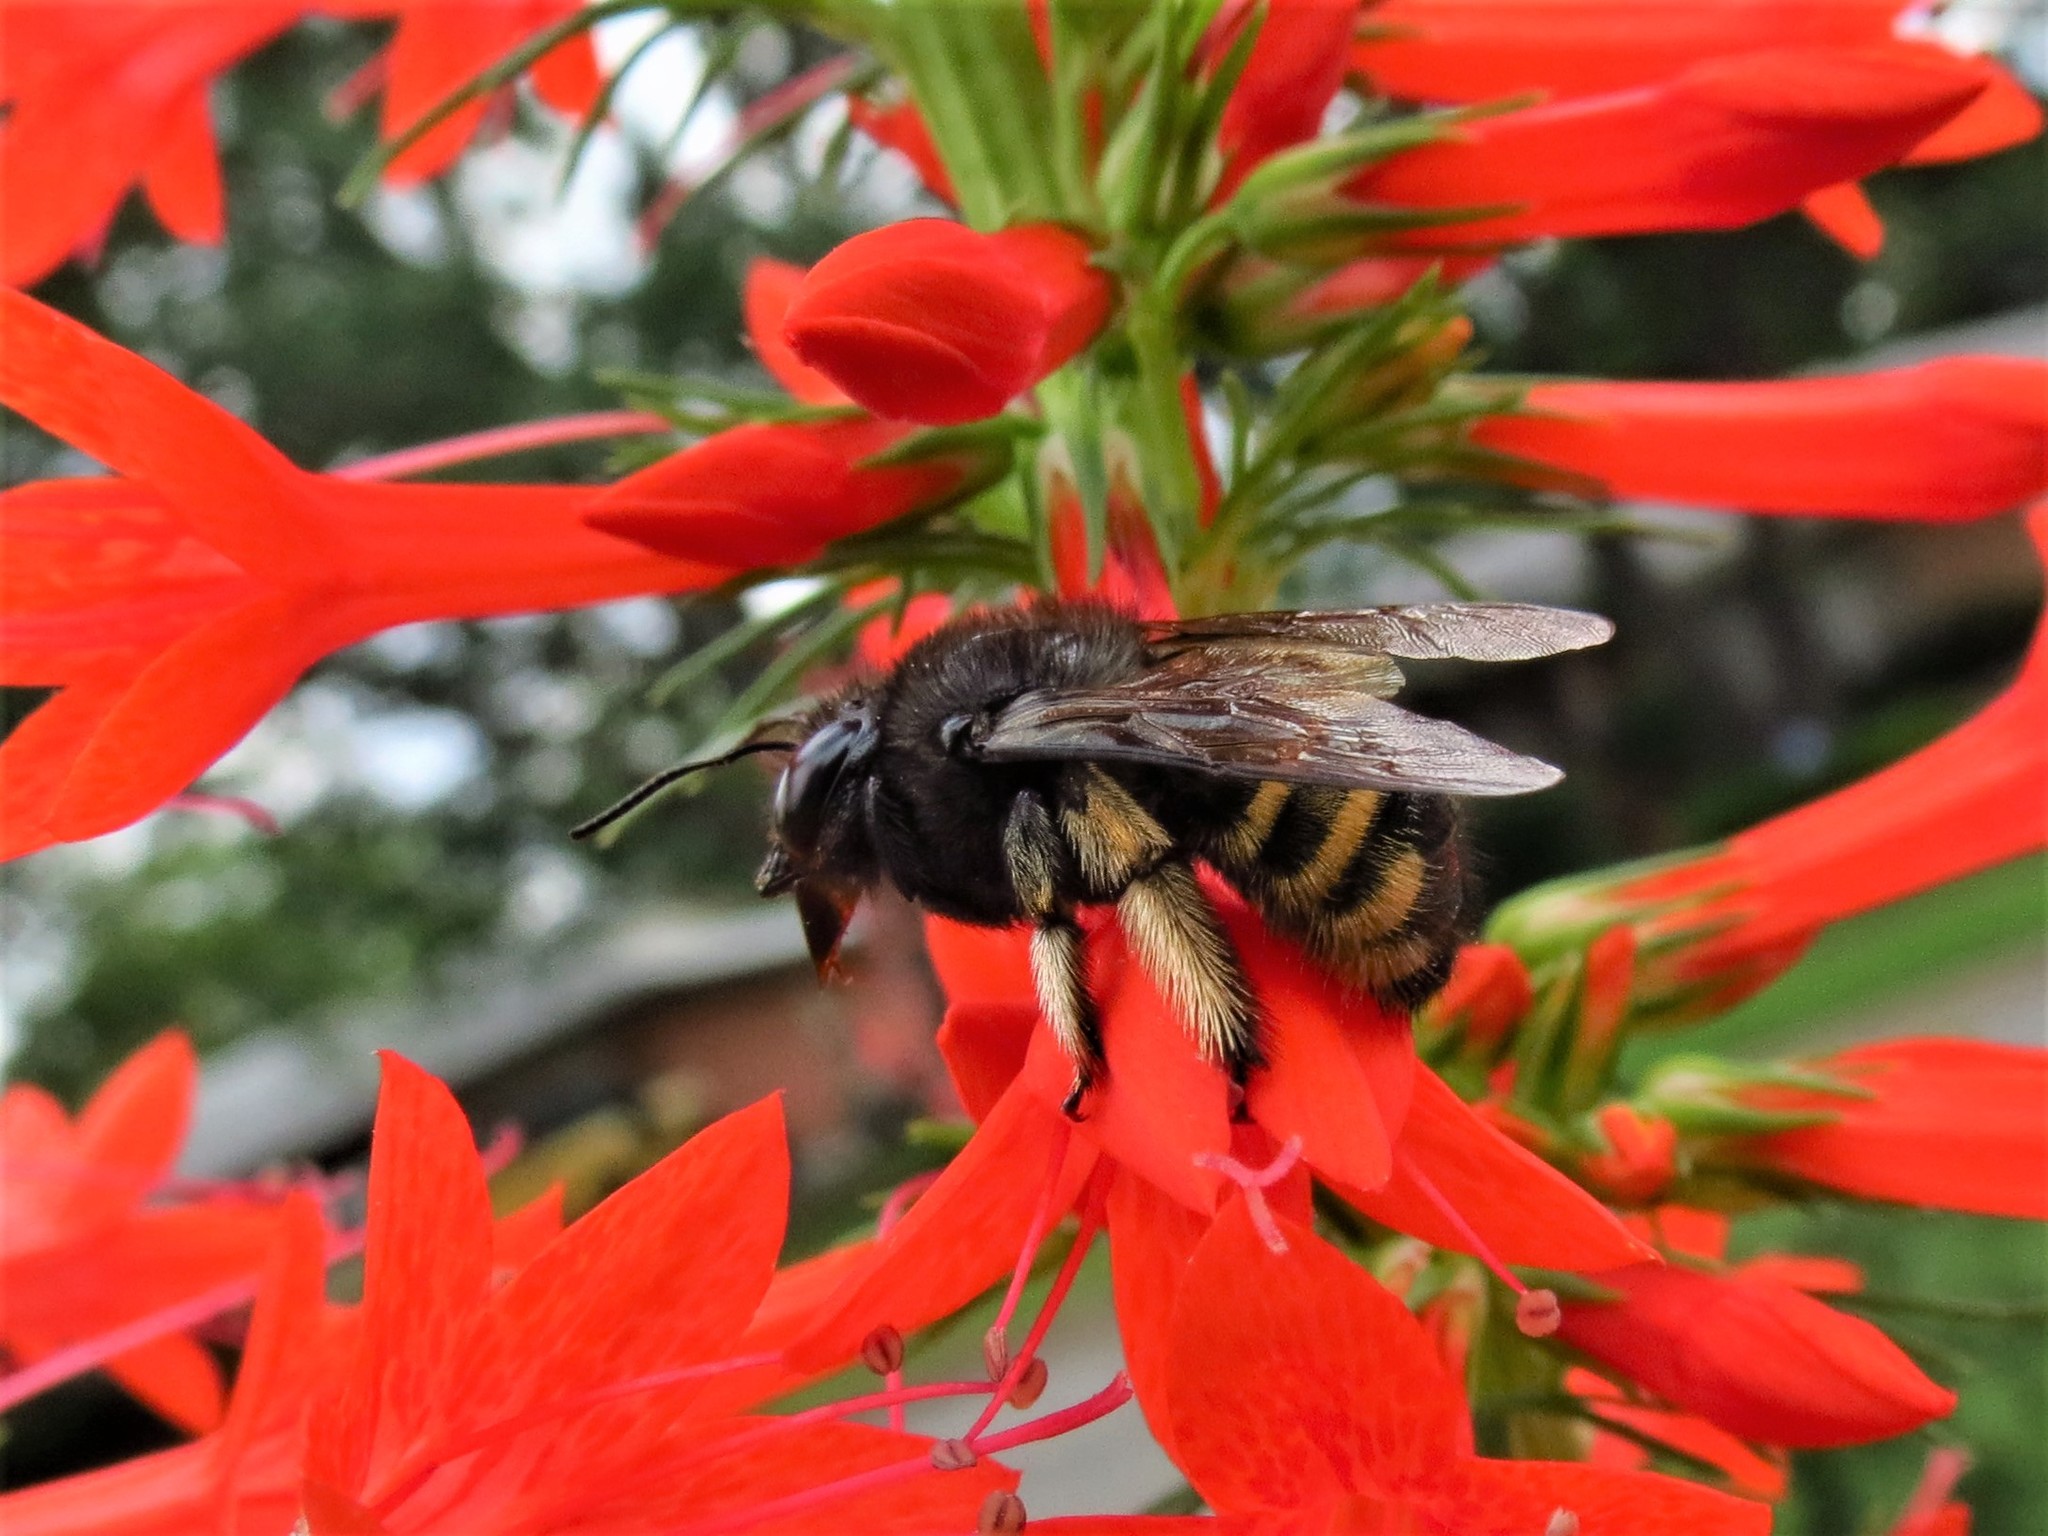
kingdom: Animalia
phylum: Arthropoda
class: Insecta
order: Hymenoptera
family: Apidae
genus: Xylocopa
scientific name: Xylocopa tabaniformis
